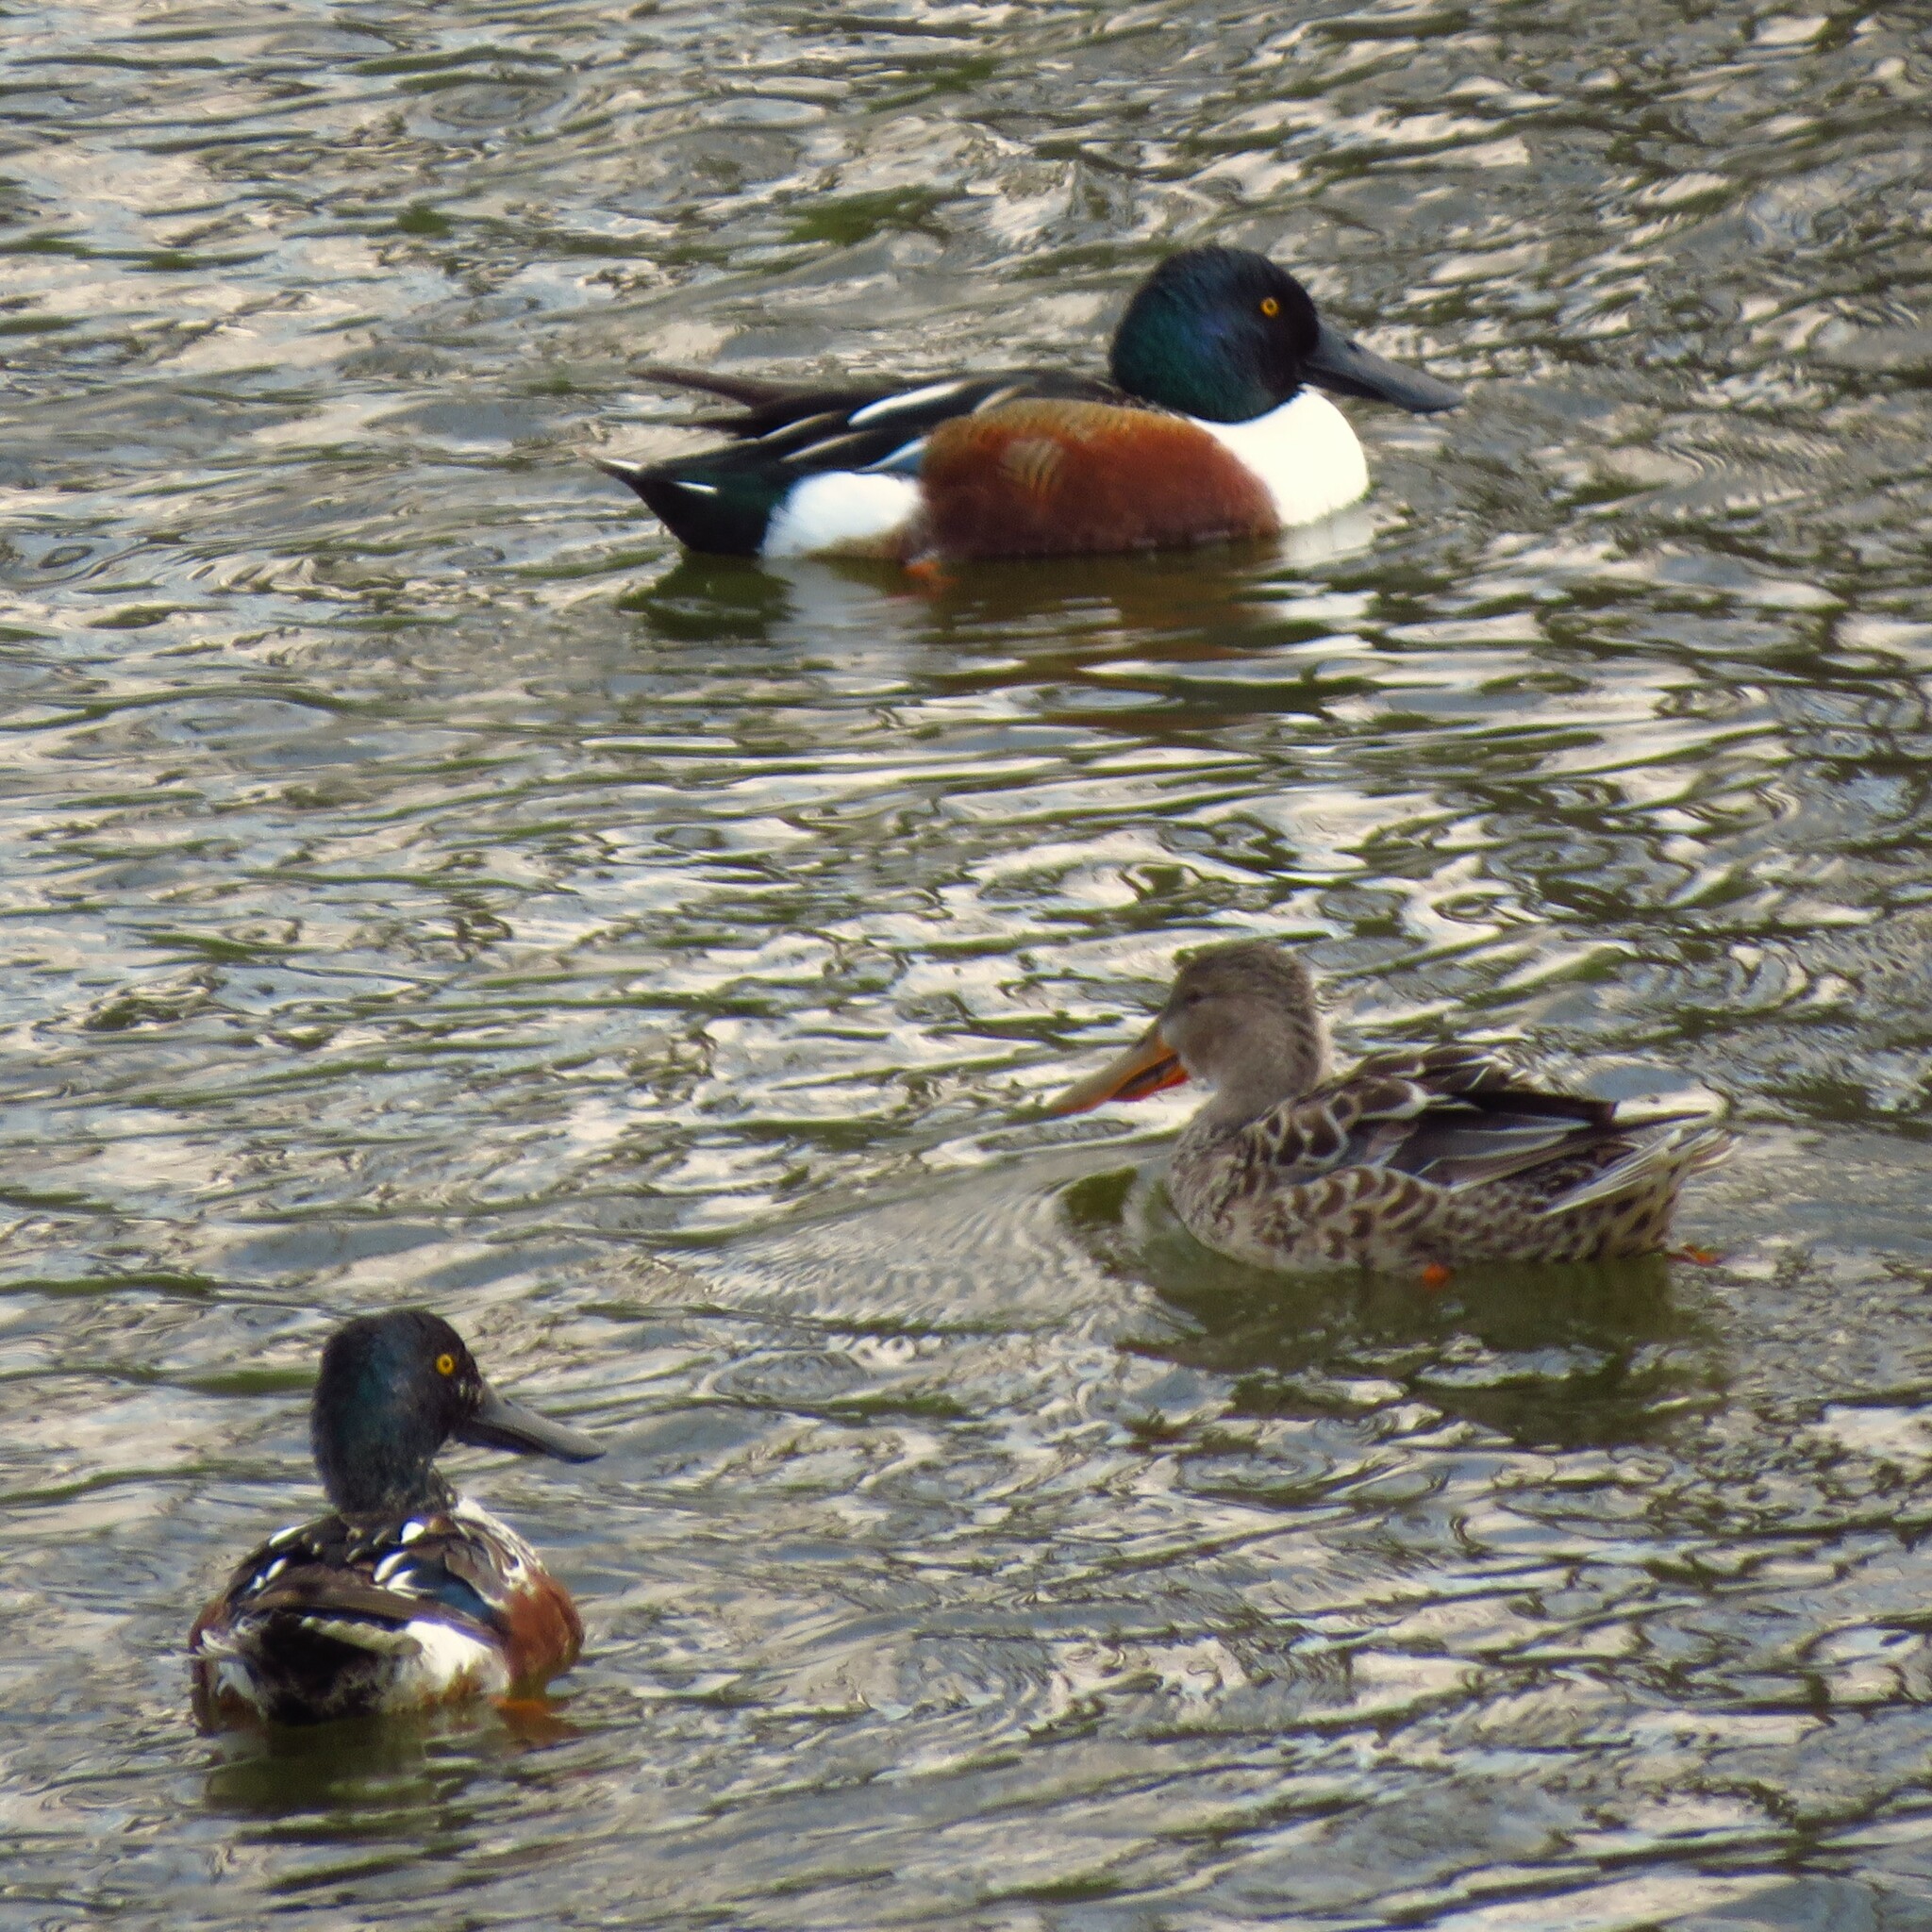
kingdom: Animalia
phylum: Chordata
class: Aves
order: Anseriformes
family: Anatidae
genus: Spatula
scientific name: Spatula clypeata
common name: Northern shoveler
